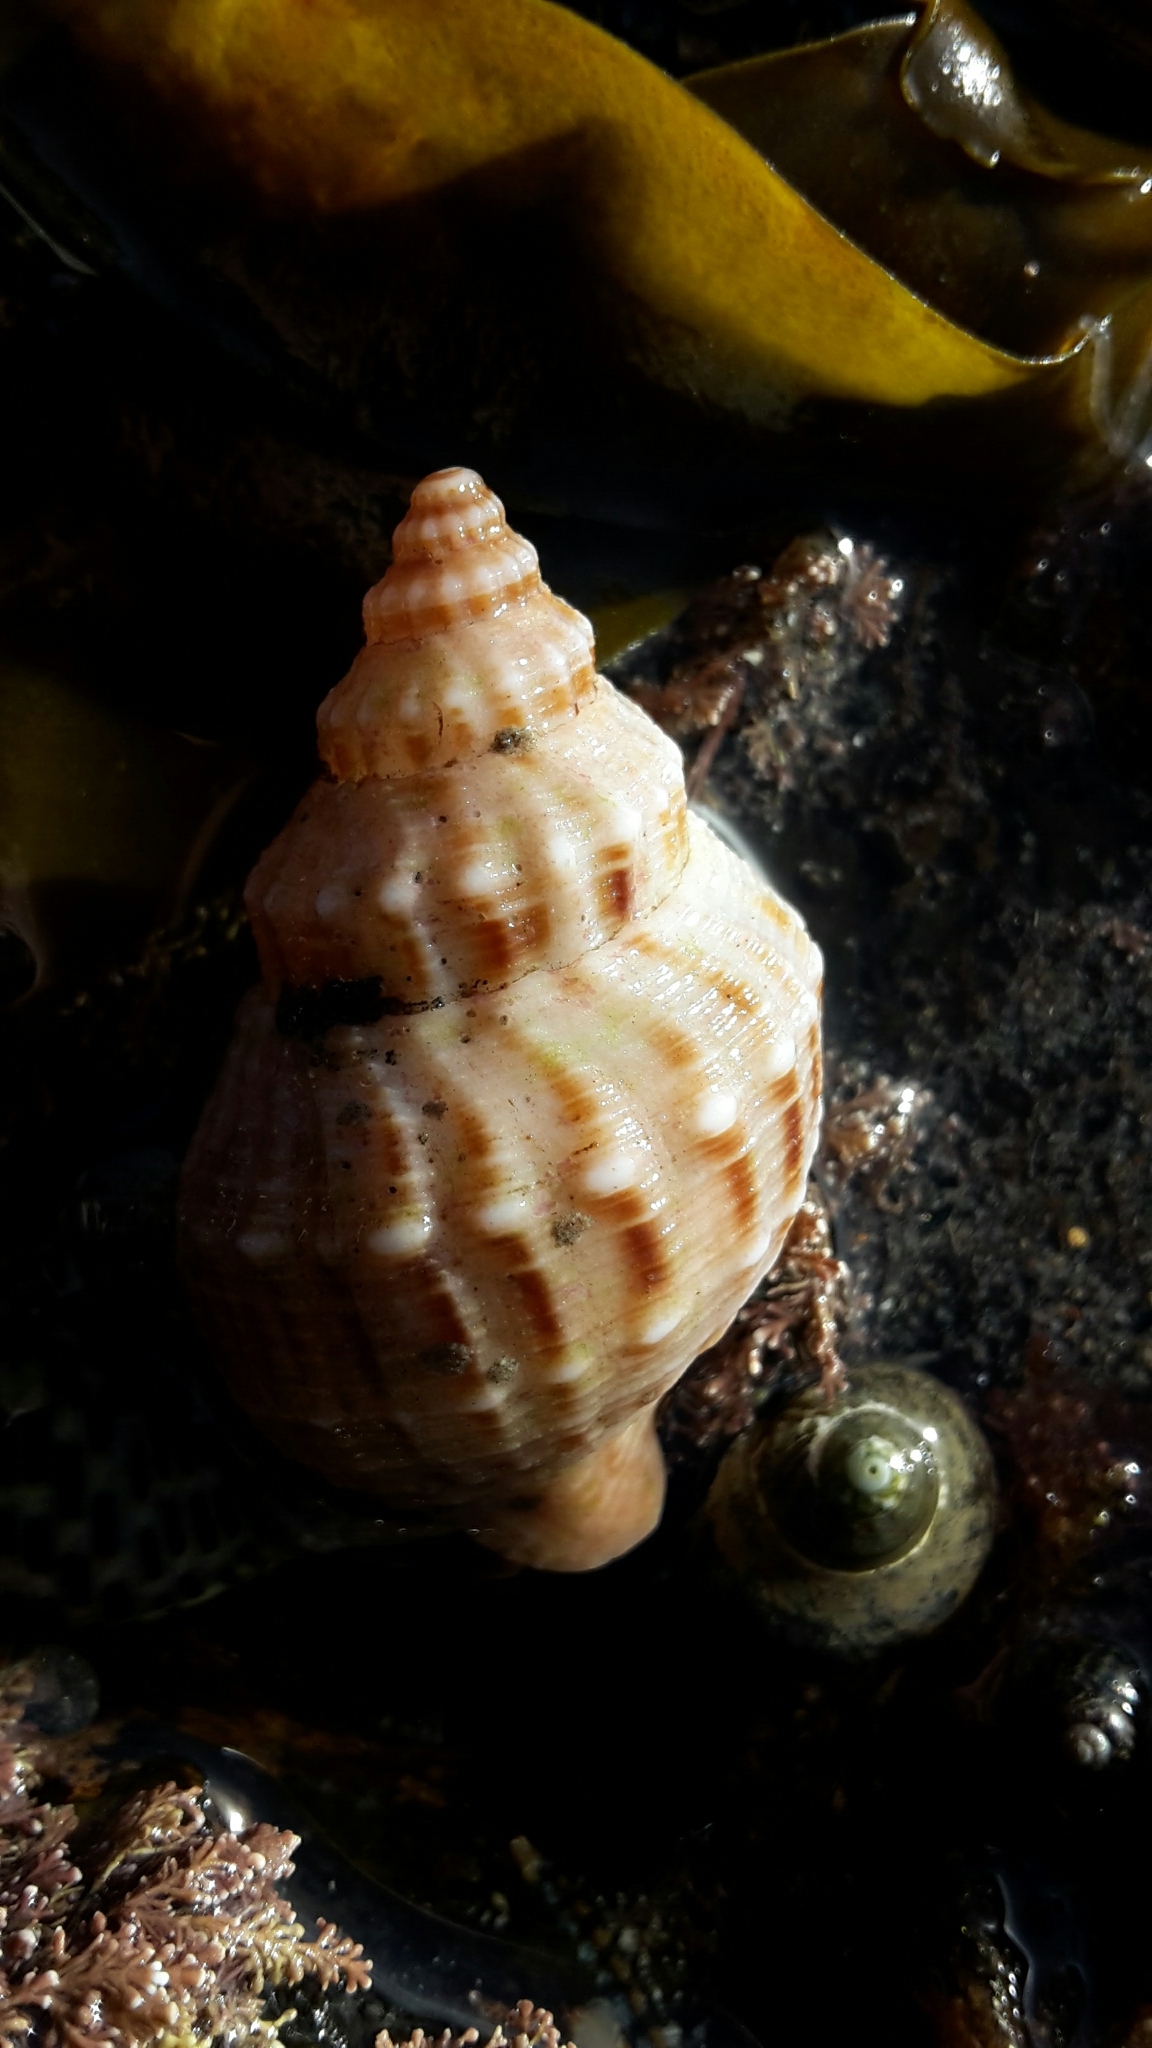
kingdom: Animalia
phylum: Mollusca
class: Gastropoda
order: Neogastropoda
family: Prosiphonidae
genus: Austrofusus
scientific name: Austrofusus glans
